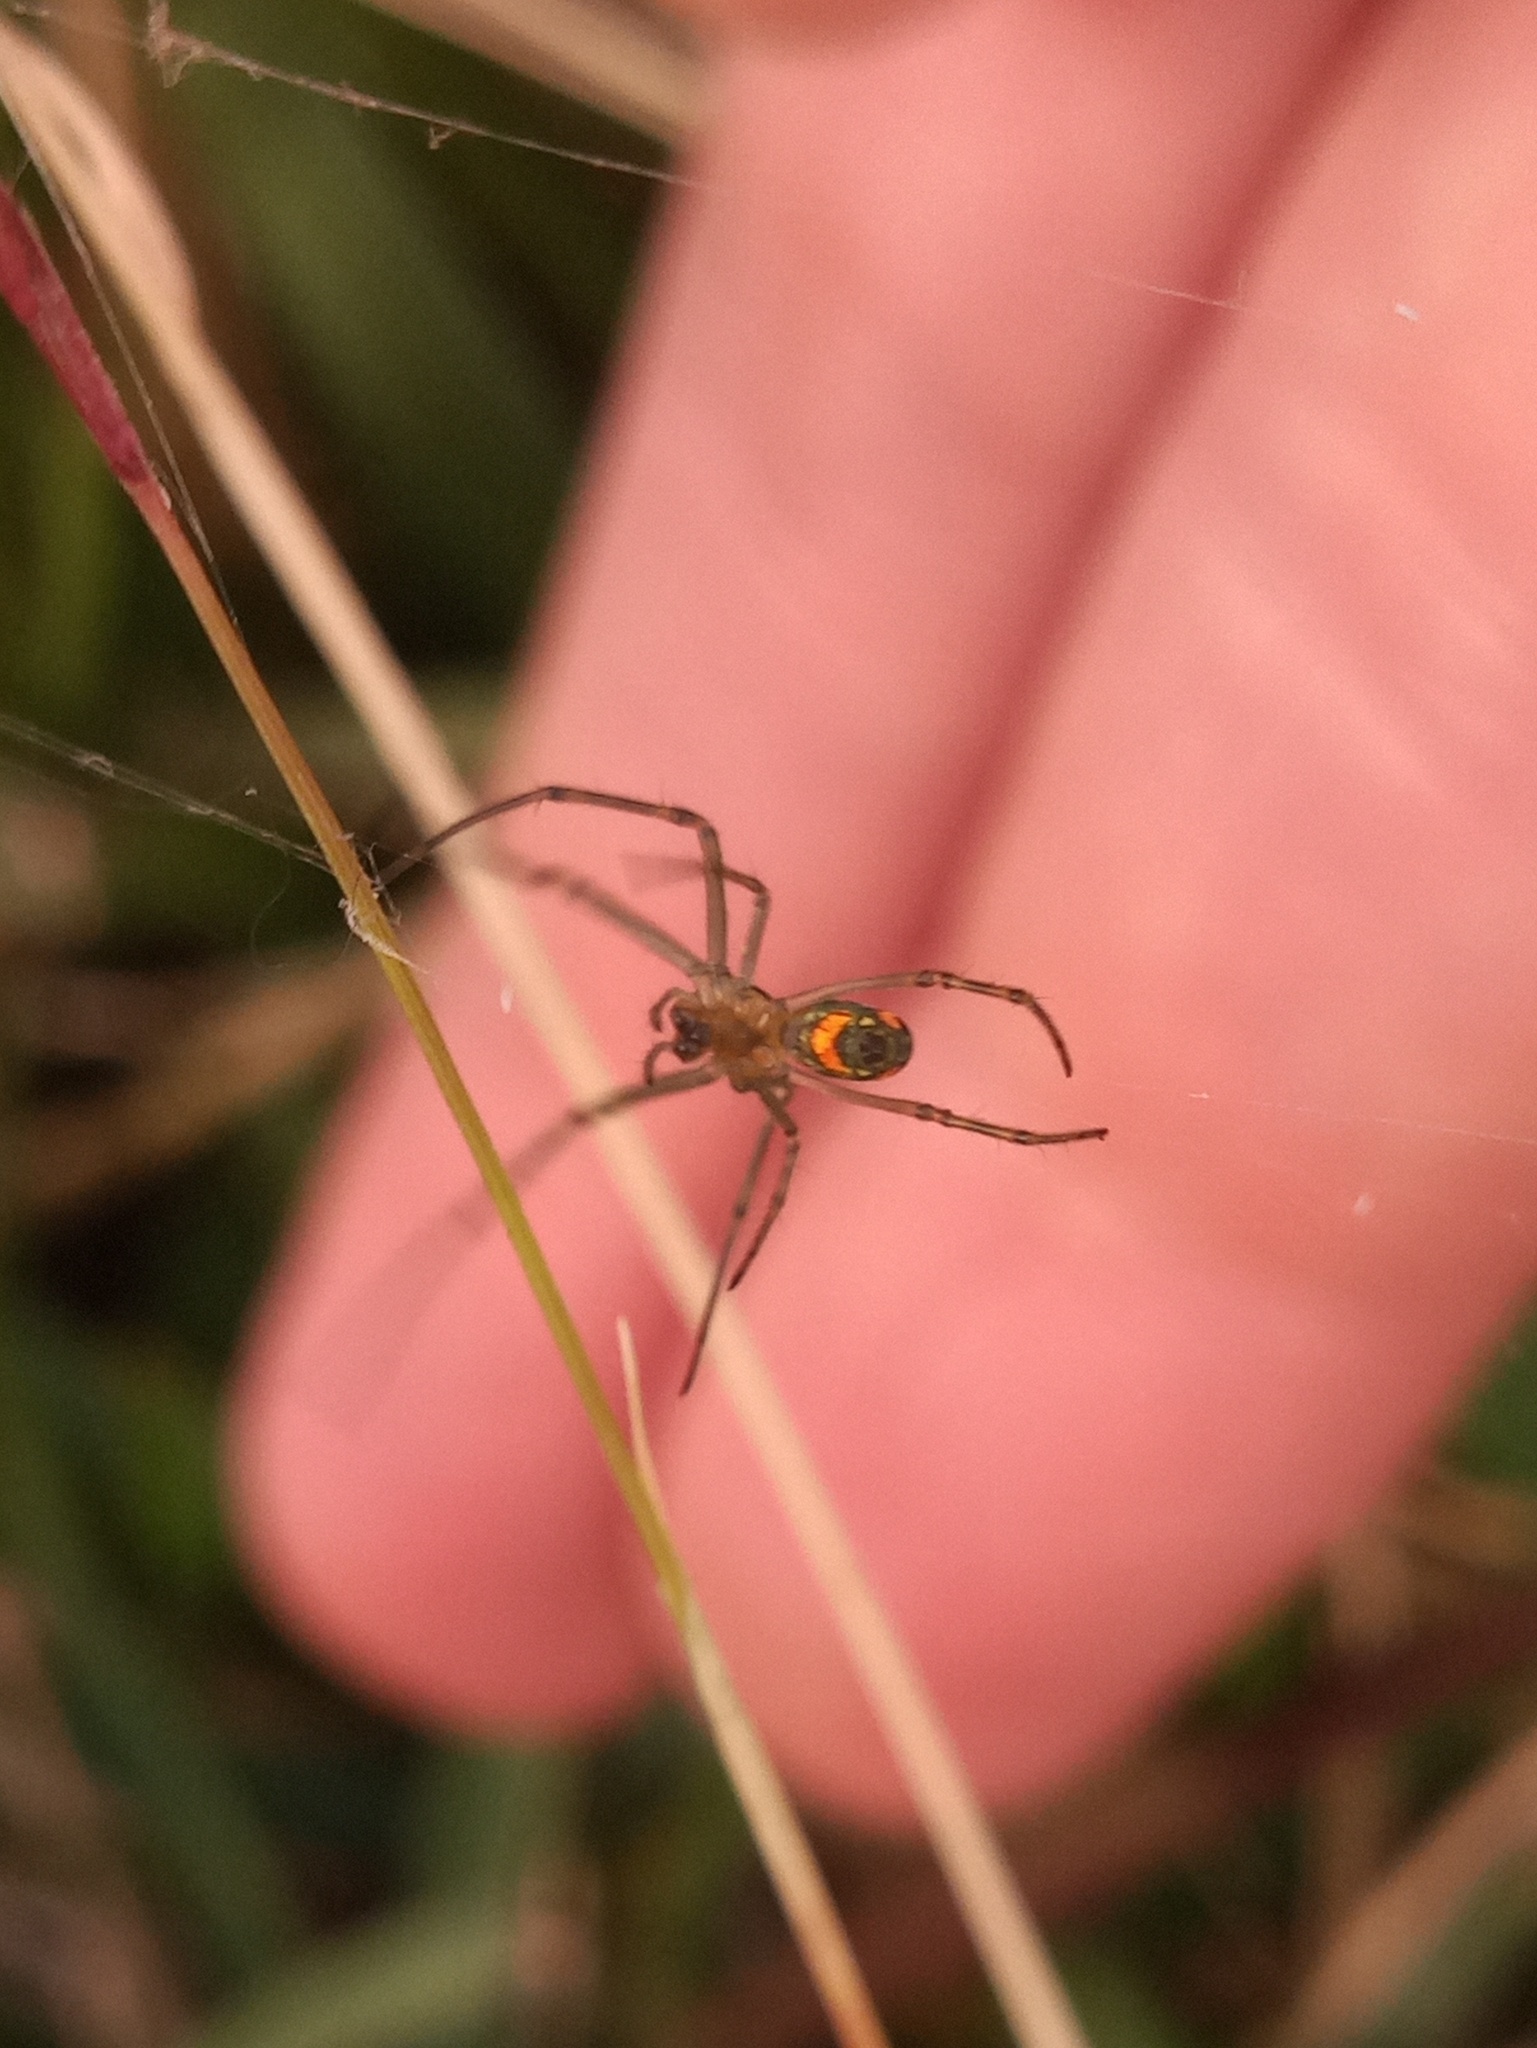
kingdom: Animalia
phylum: Arthropoda
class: Arachnida
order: Araneae
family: Tetragnathidae
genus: Leucauge
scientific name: Leucauge argyrobapta
